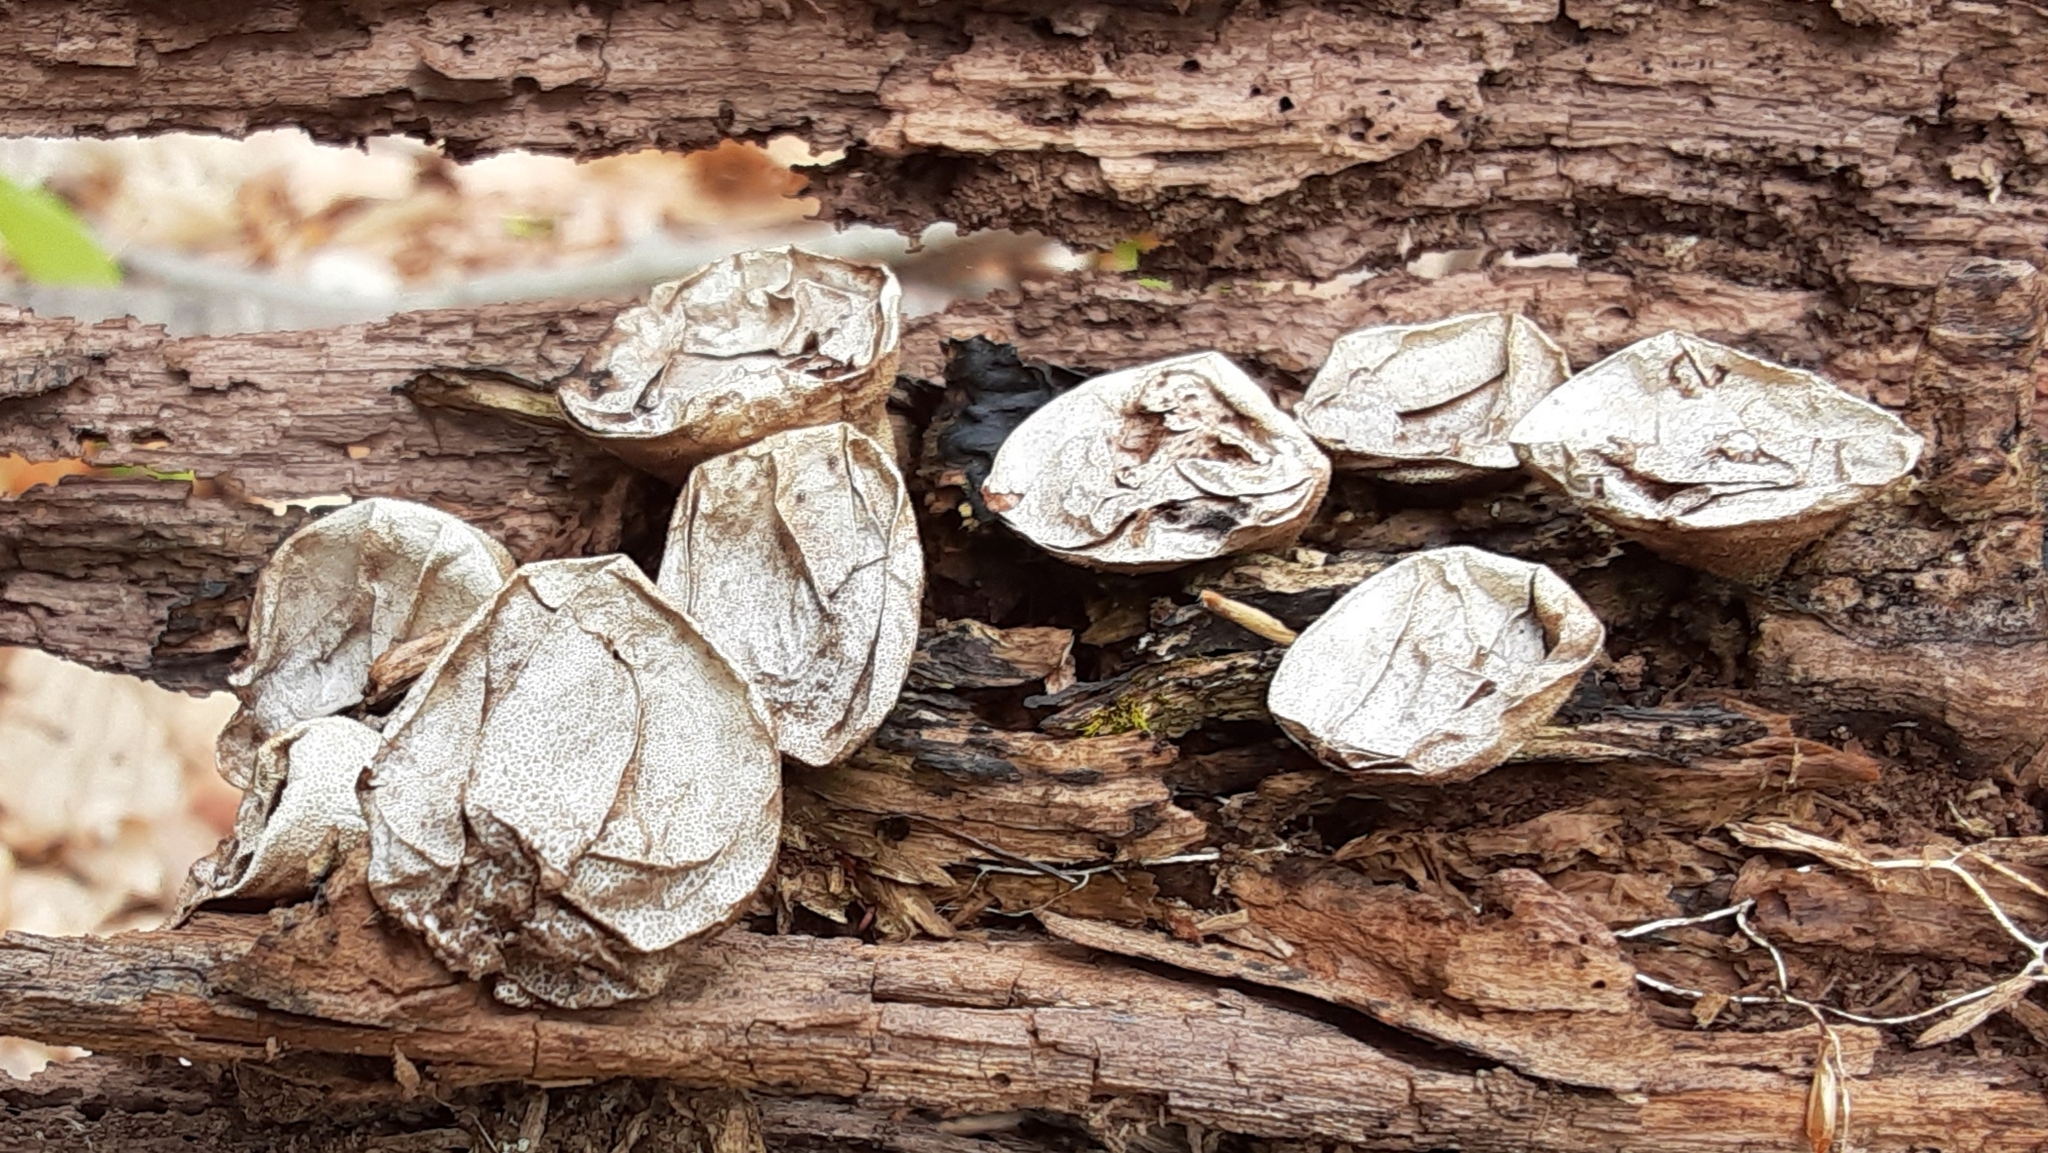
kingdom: Fungi
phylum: Basidiomycota
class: Agaricomycetes
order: Agaricales
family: Lycoperdaceae
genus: Apioperdon
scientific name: Apioperdon pyriforme
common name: Pear-shaped puffball
